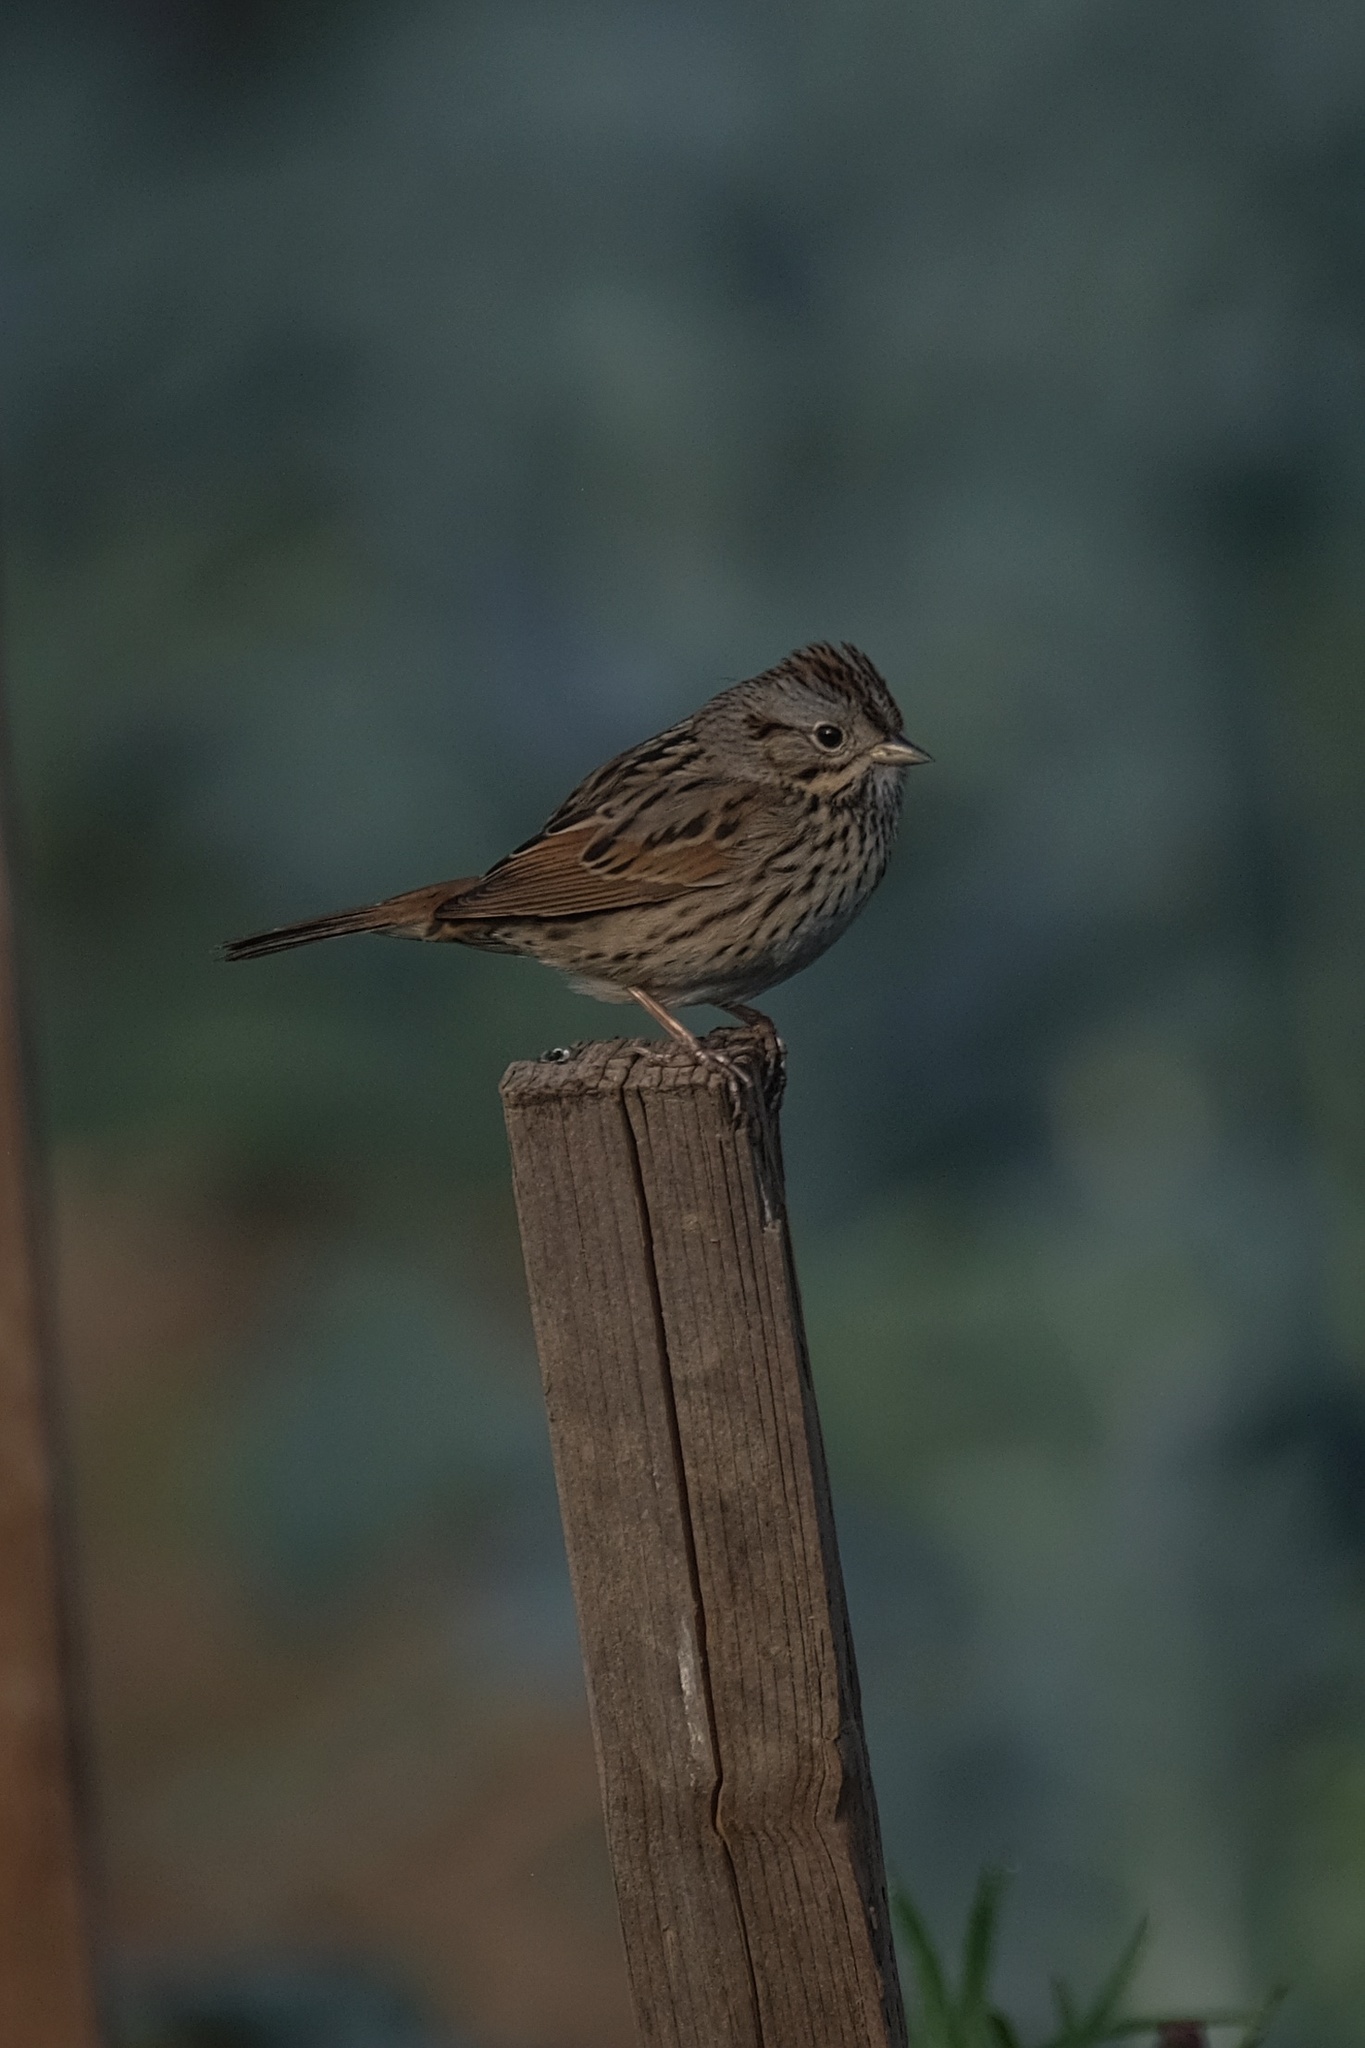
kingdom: Animalia
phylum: Chordata
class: Aves
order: Passeriformes
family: Passerellidae
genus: Melospiza
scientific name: Melospiza lincolnii
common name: Lincoln's sparrow
